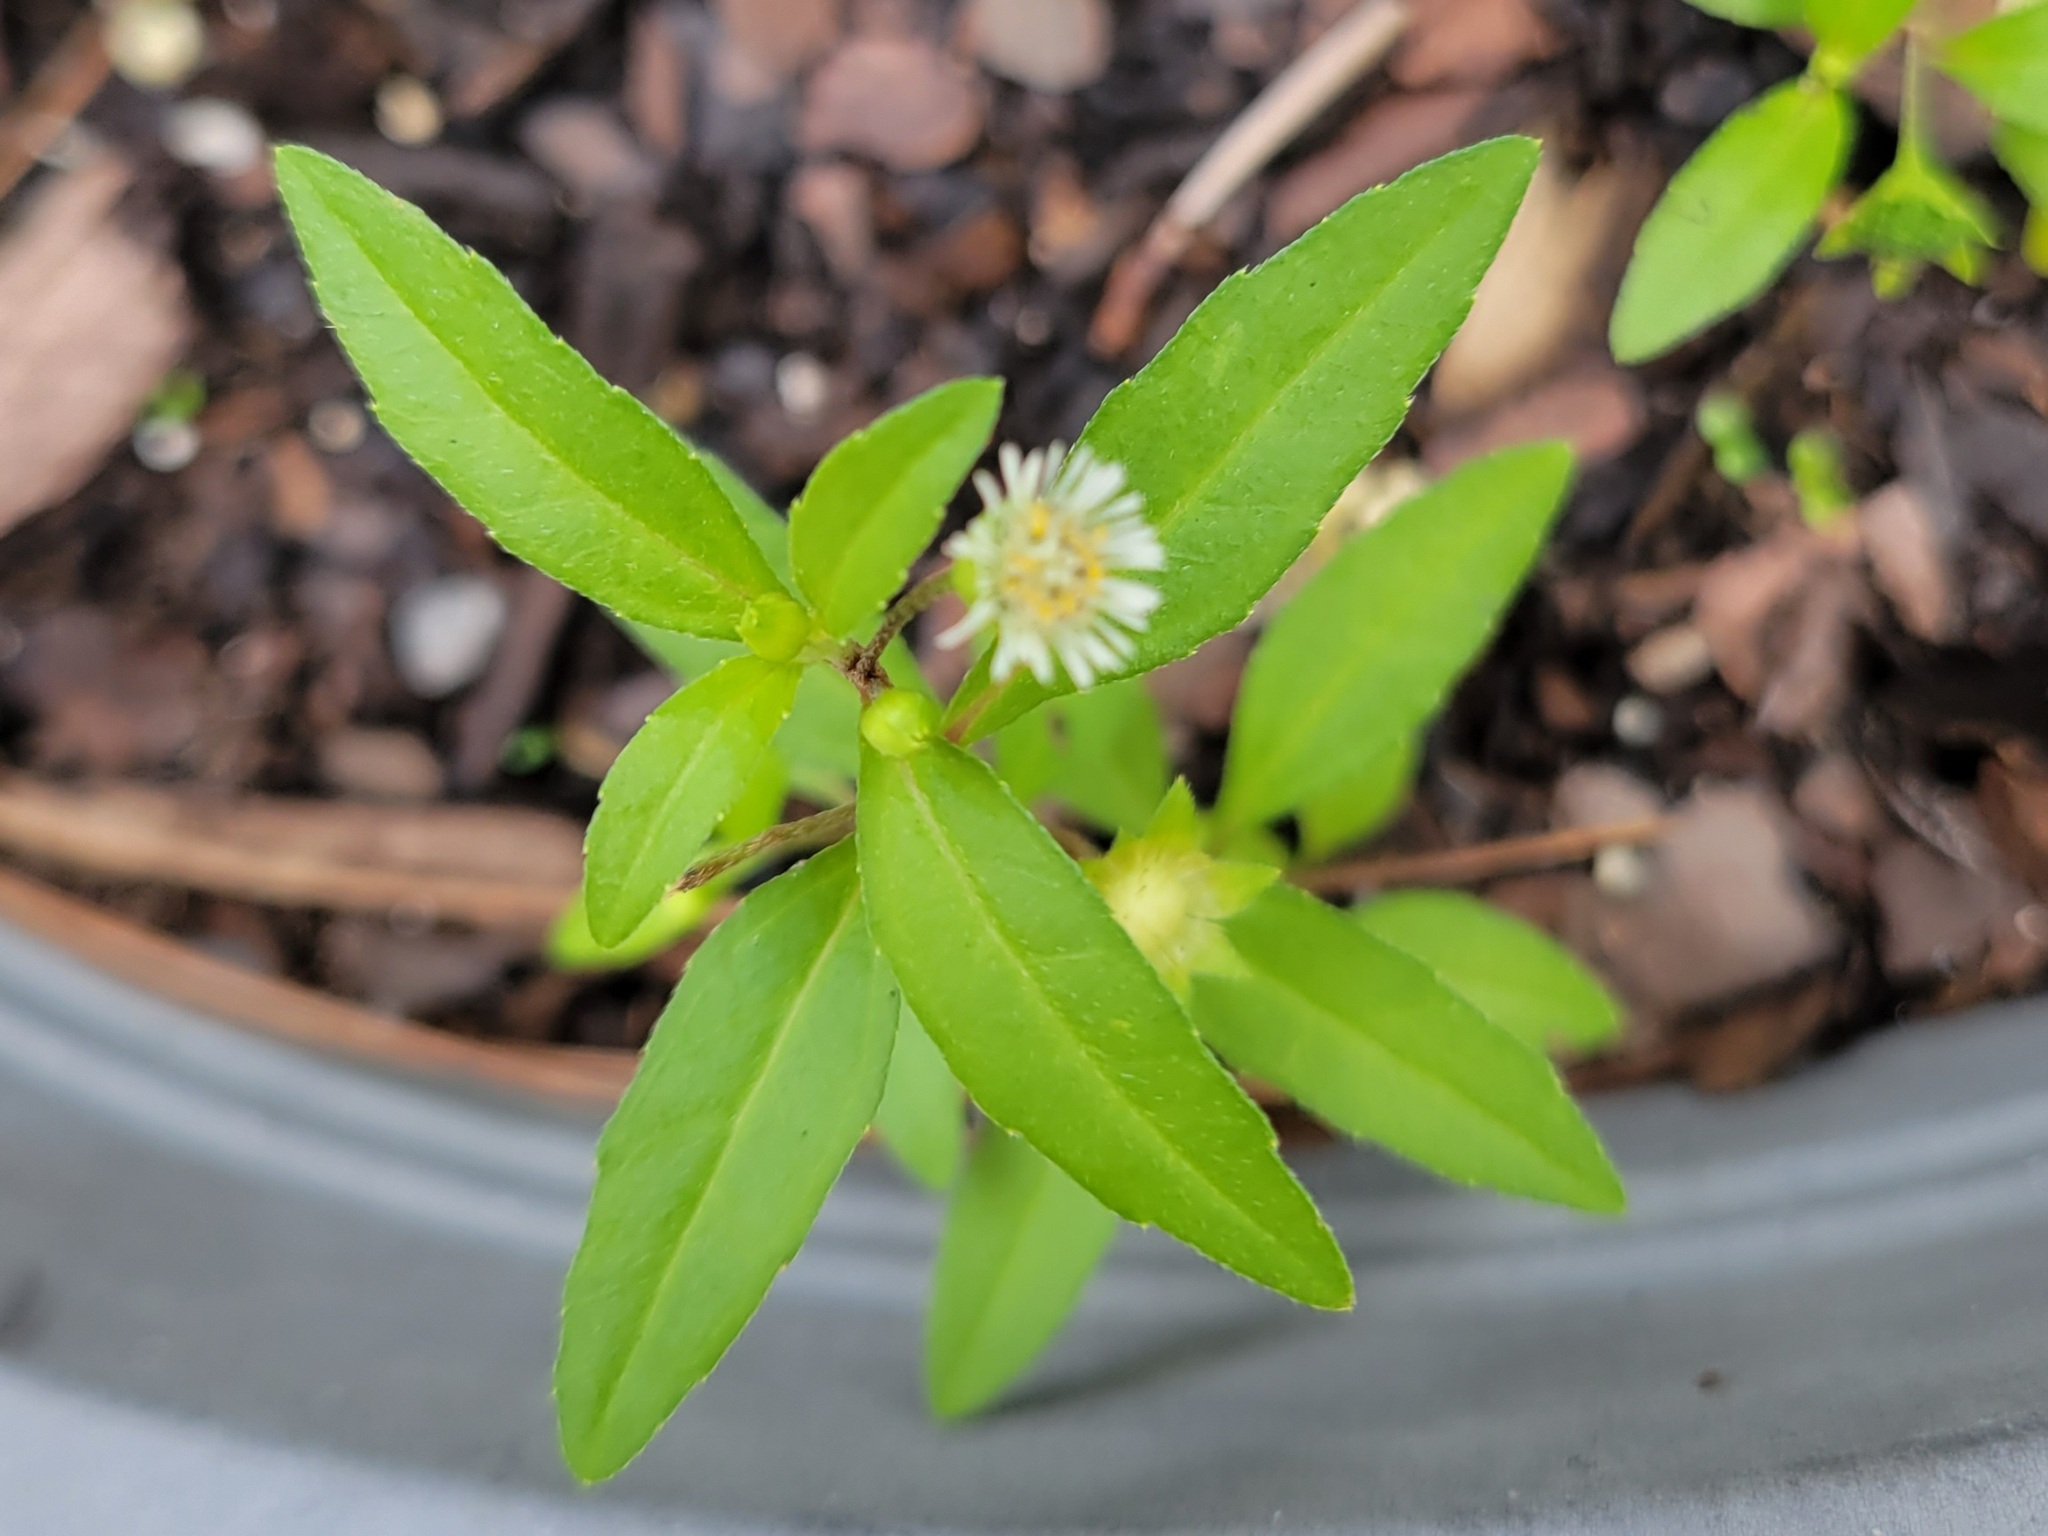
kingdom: Plantae
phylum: Tracheophyta
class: Magnoliopsida
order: Asterales
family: Asteraceae
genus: Eclipta
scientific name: Eclipta prostrata
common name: False daisy
